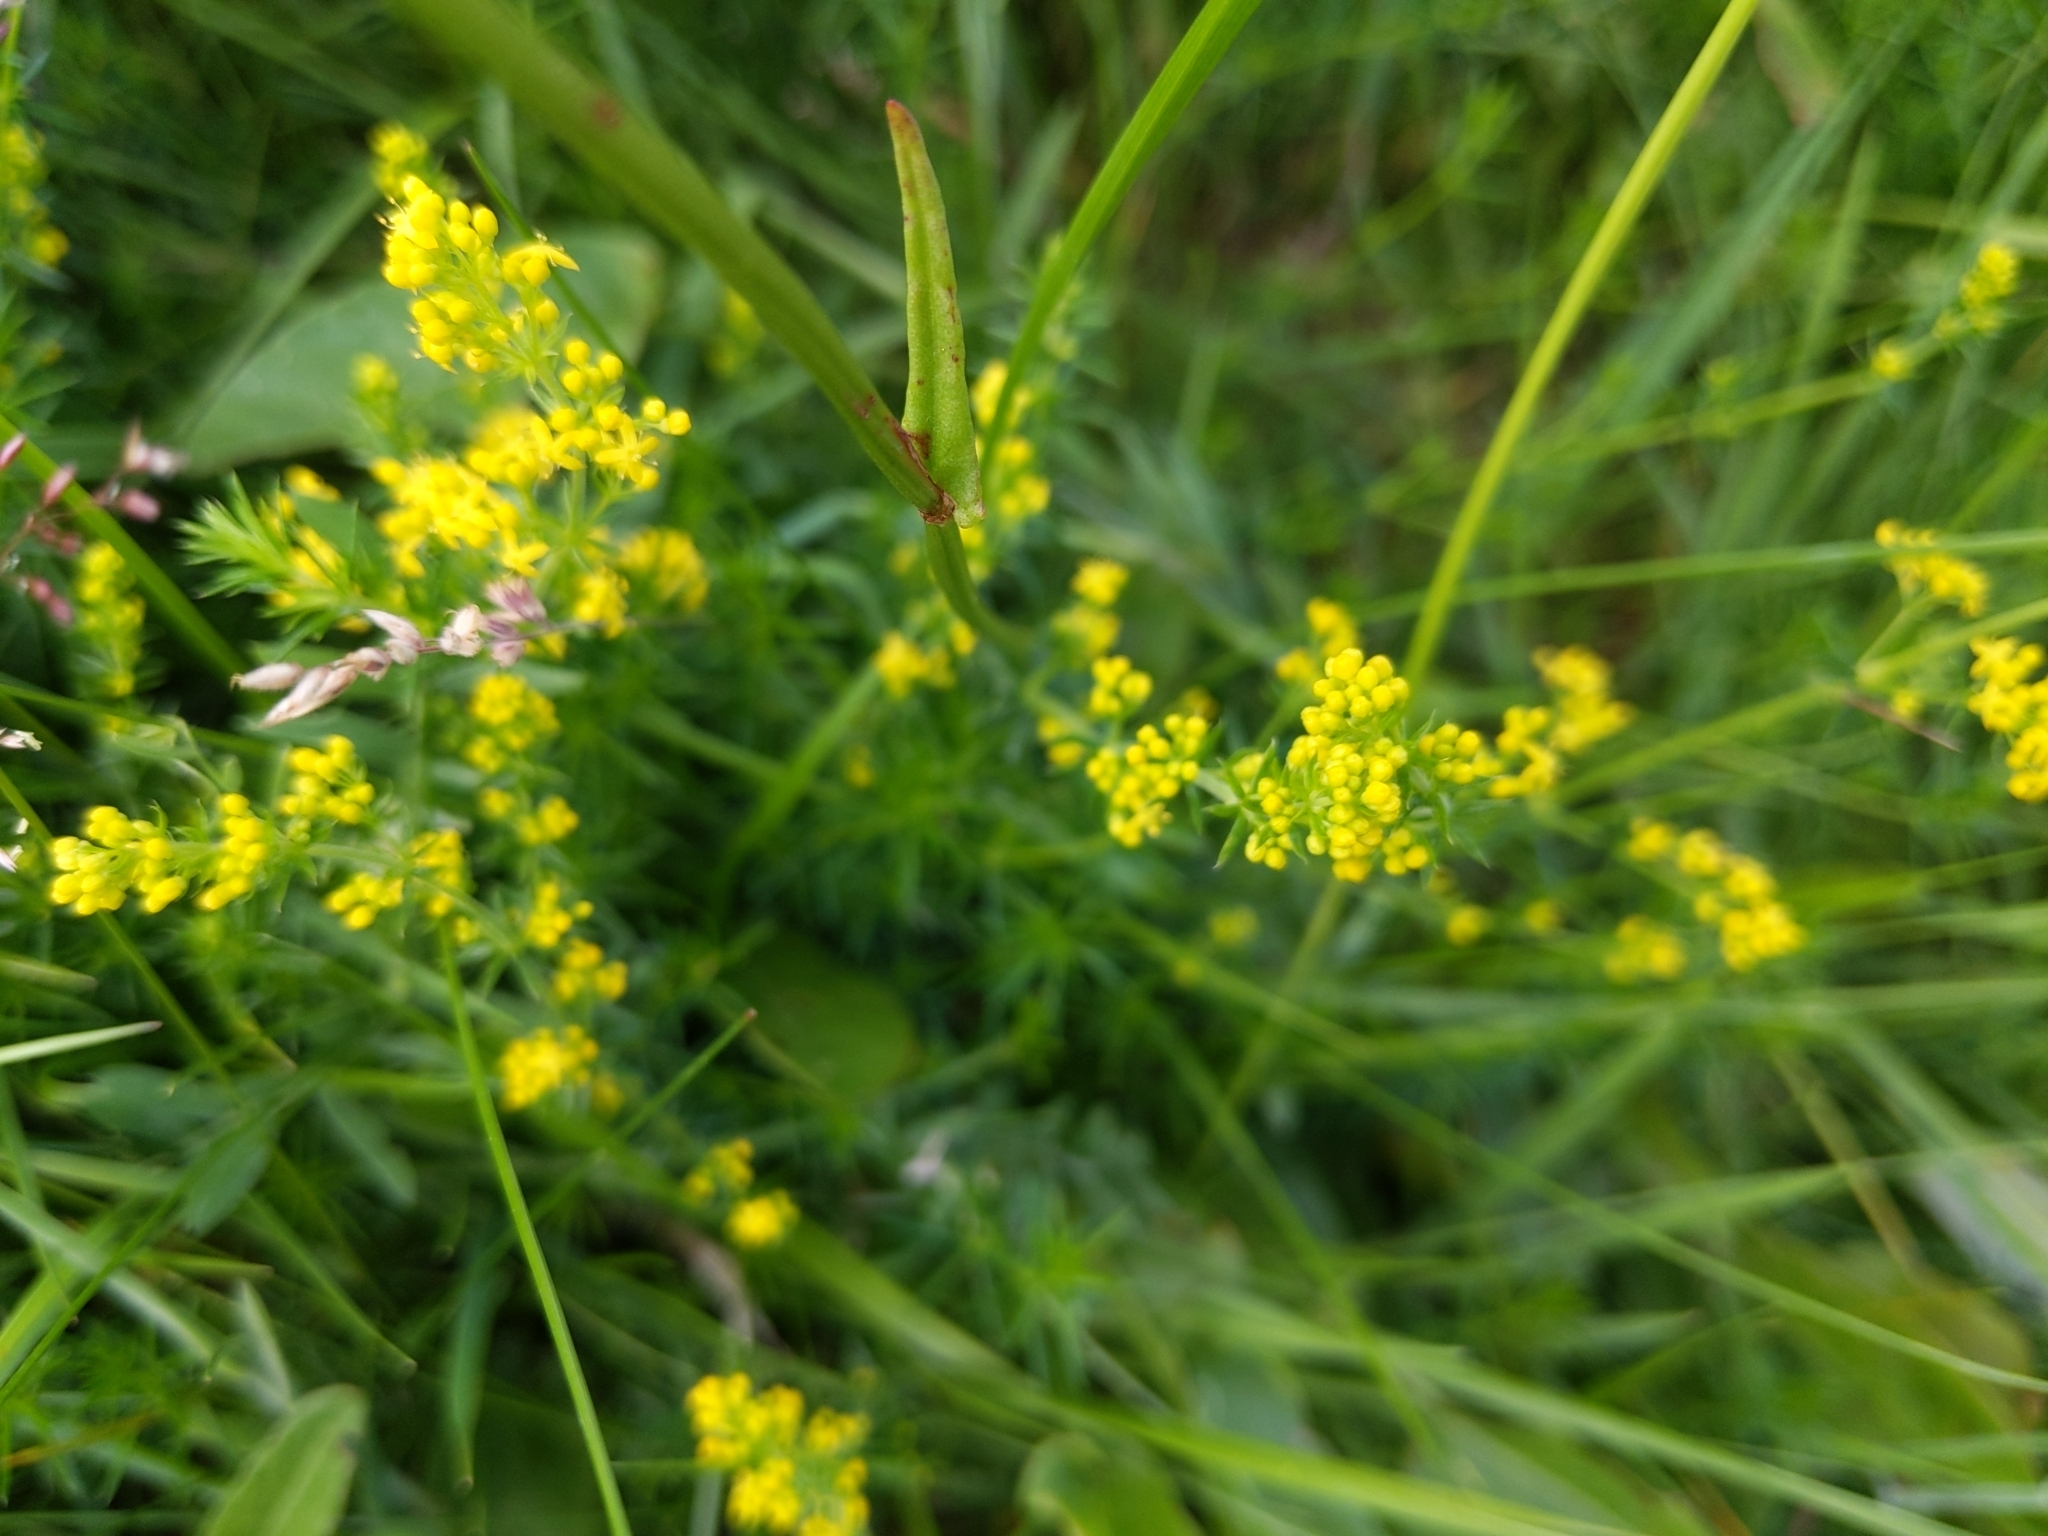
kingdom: Plantae
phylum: Tracheophyta
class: Magnoliopsida
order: Gentianales
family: Rubiaceae
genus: Galium
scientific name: Galium verum
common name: Lady's bedstraw
